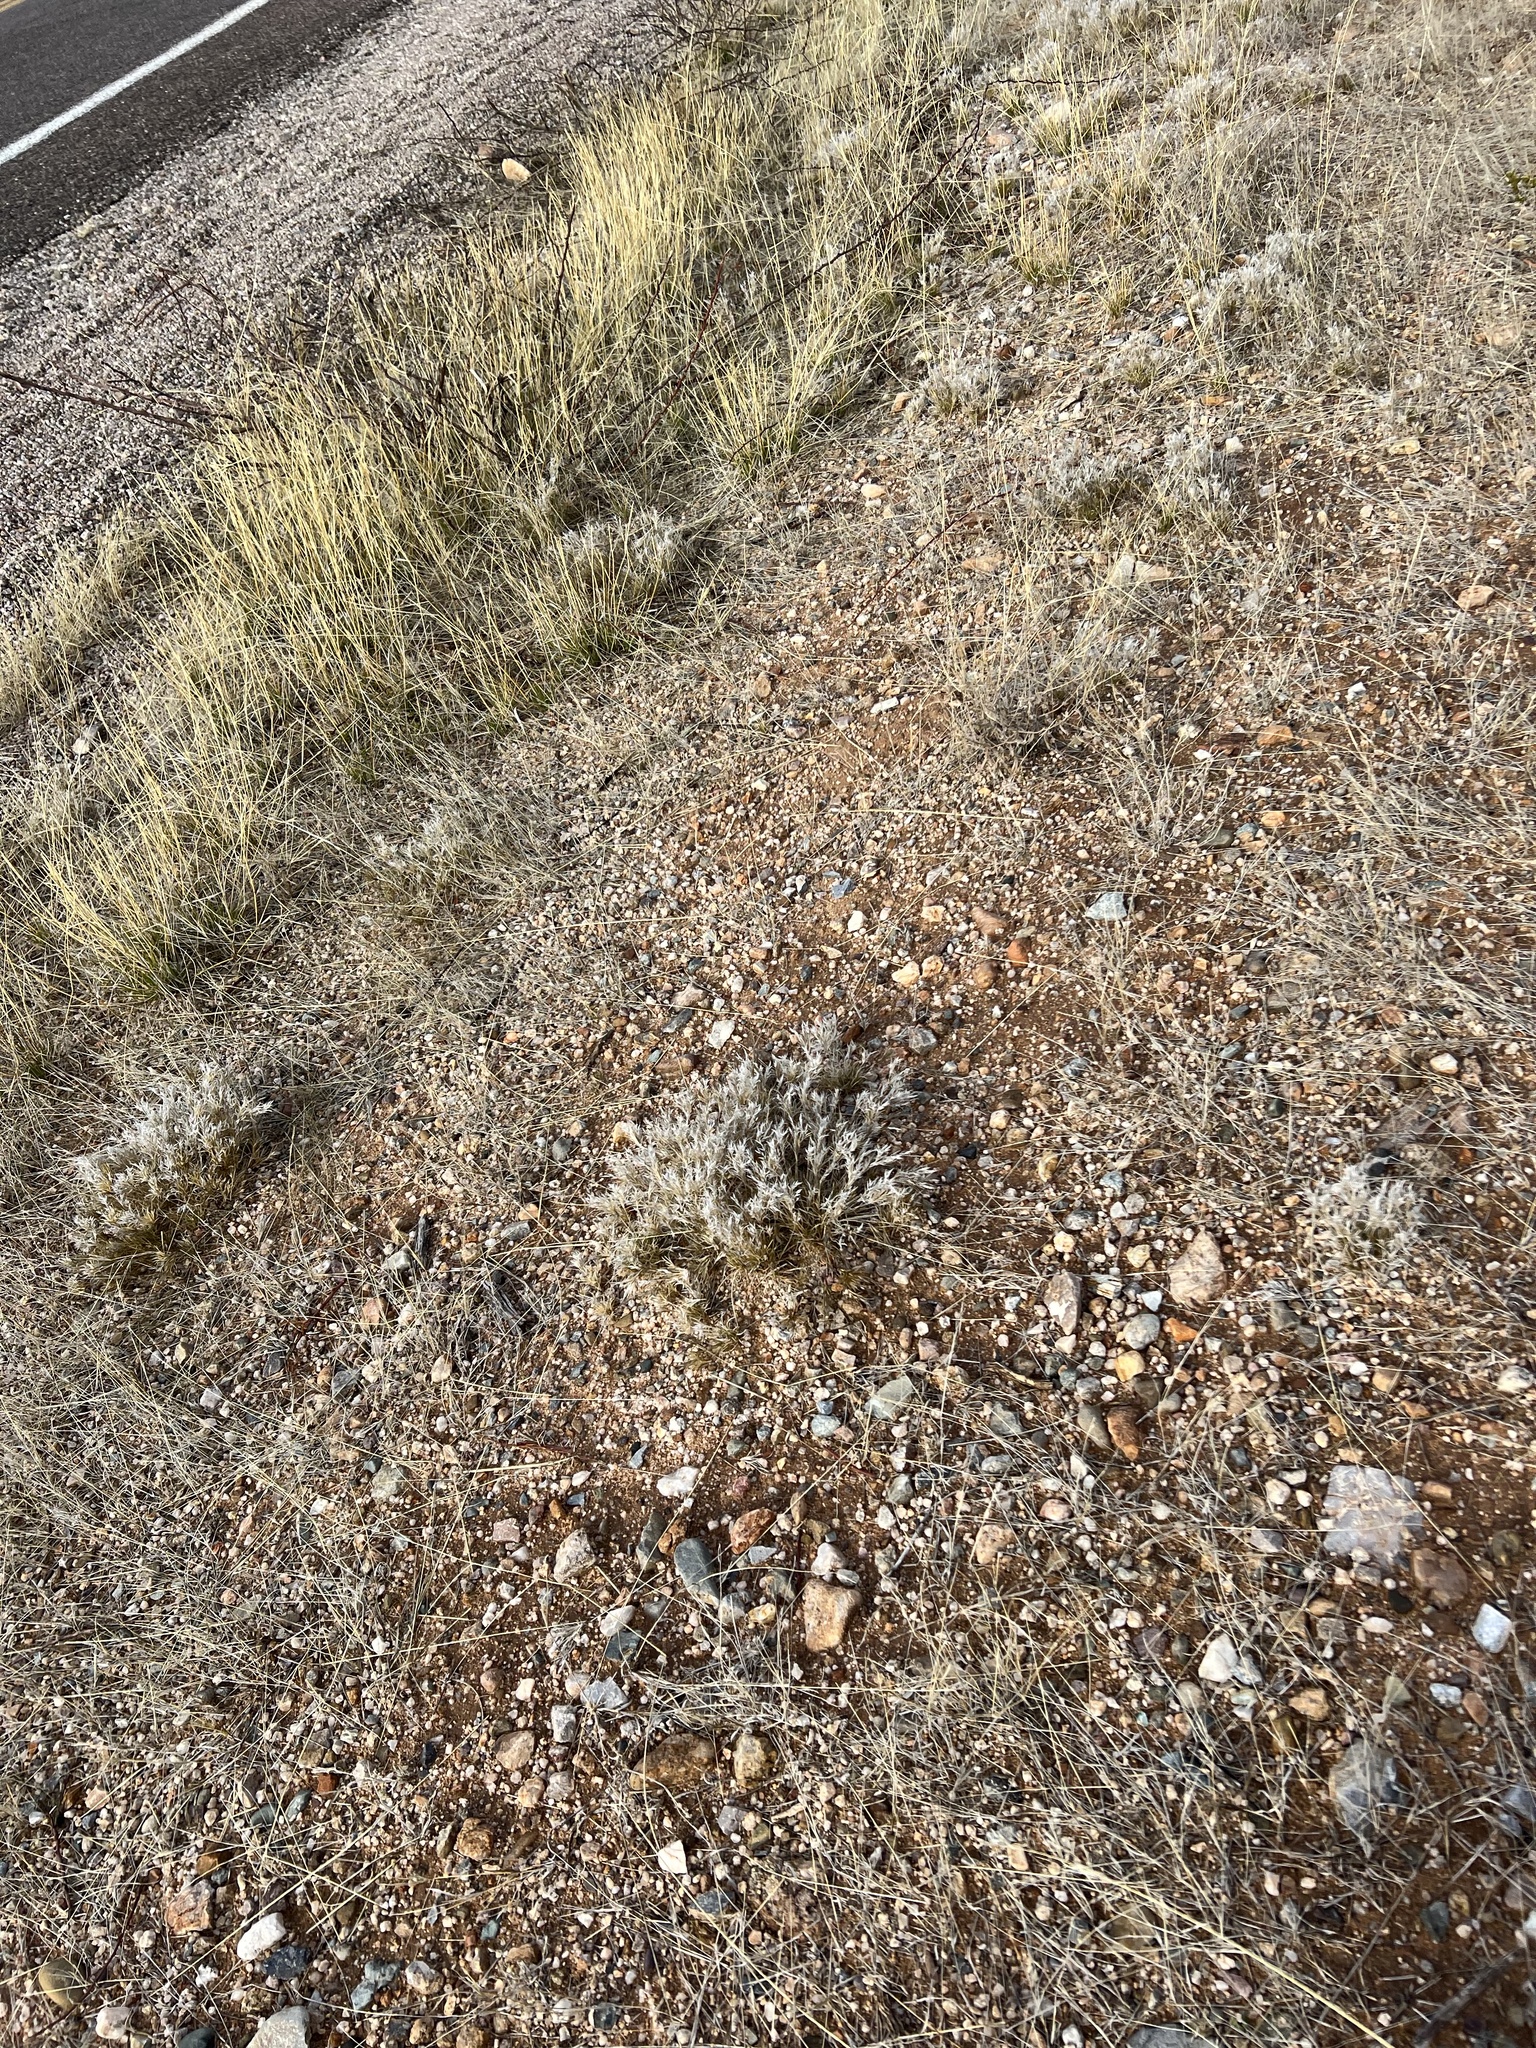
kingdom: Plantae
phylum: Tracheophyta
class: Liliopsida
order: Poales
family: Poaceae
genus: Dasyochloa
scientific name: Dasyochloa pulchella
